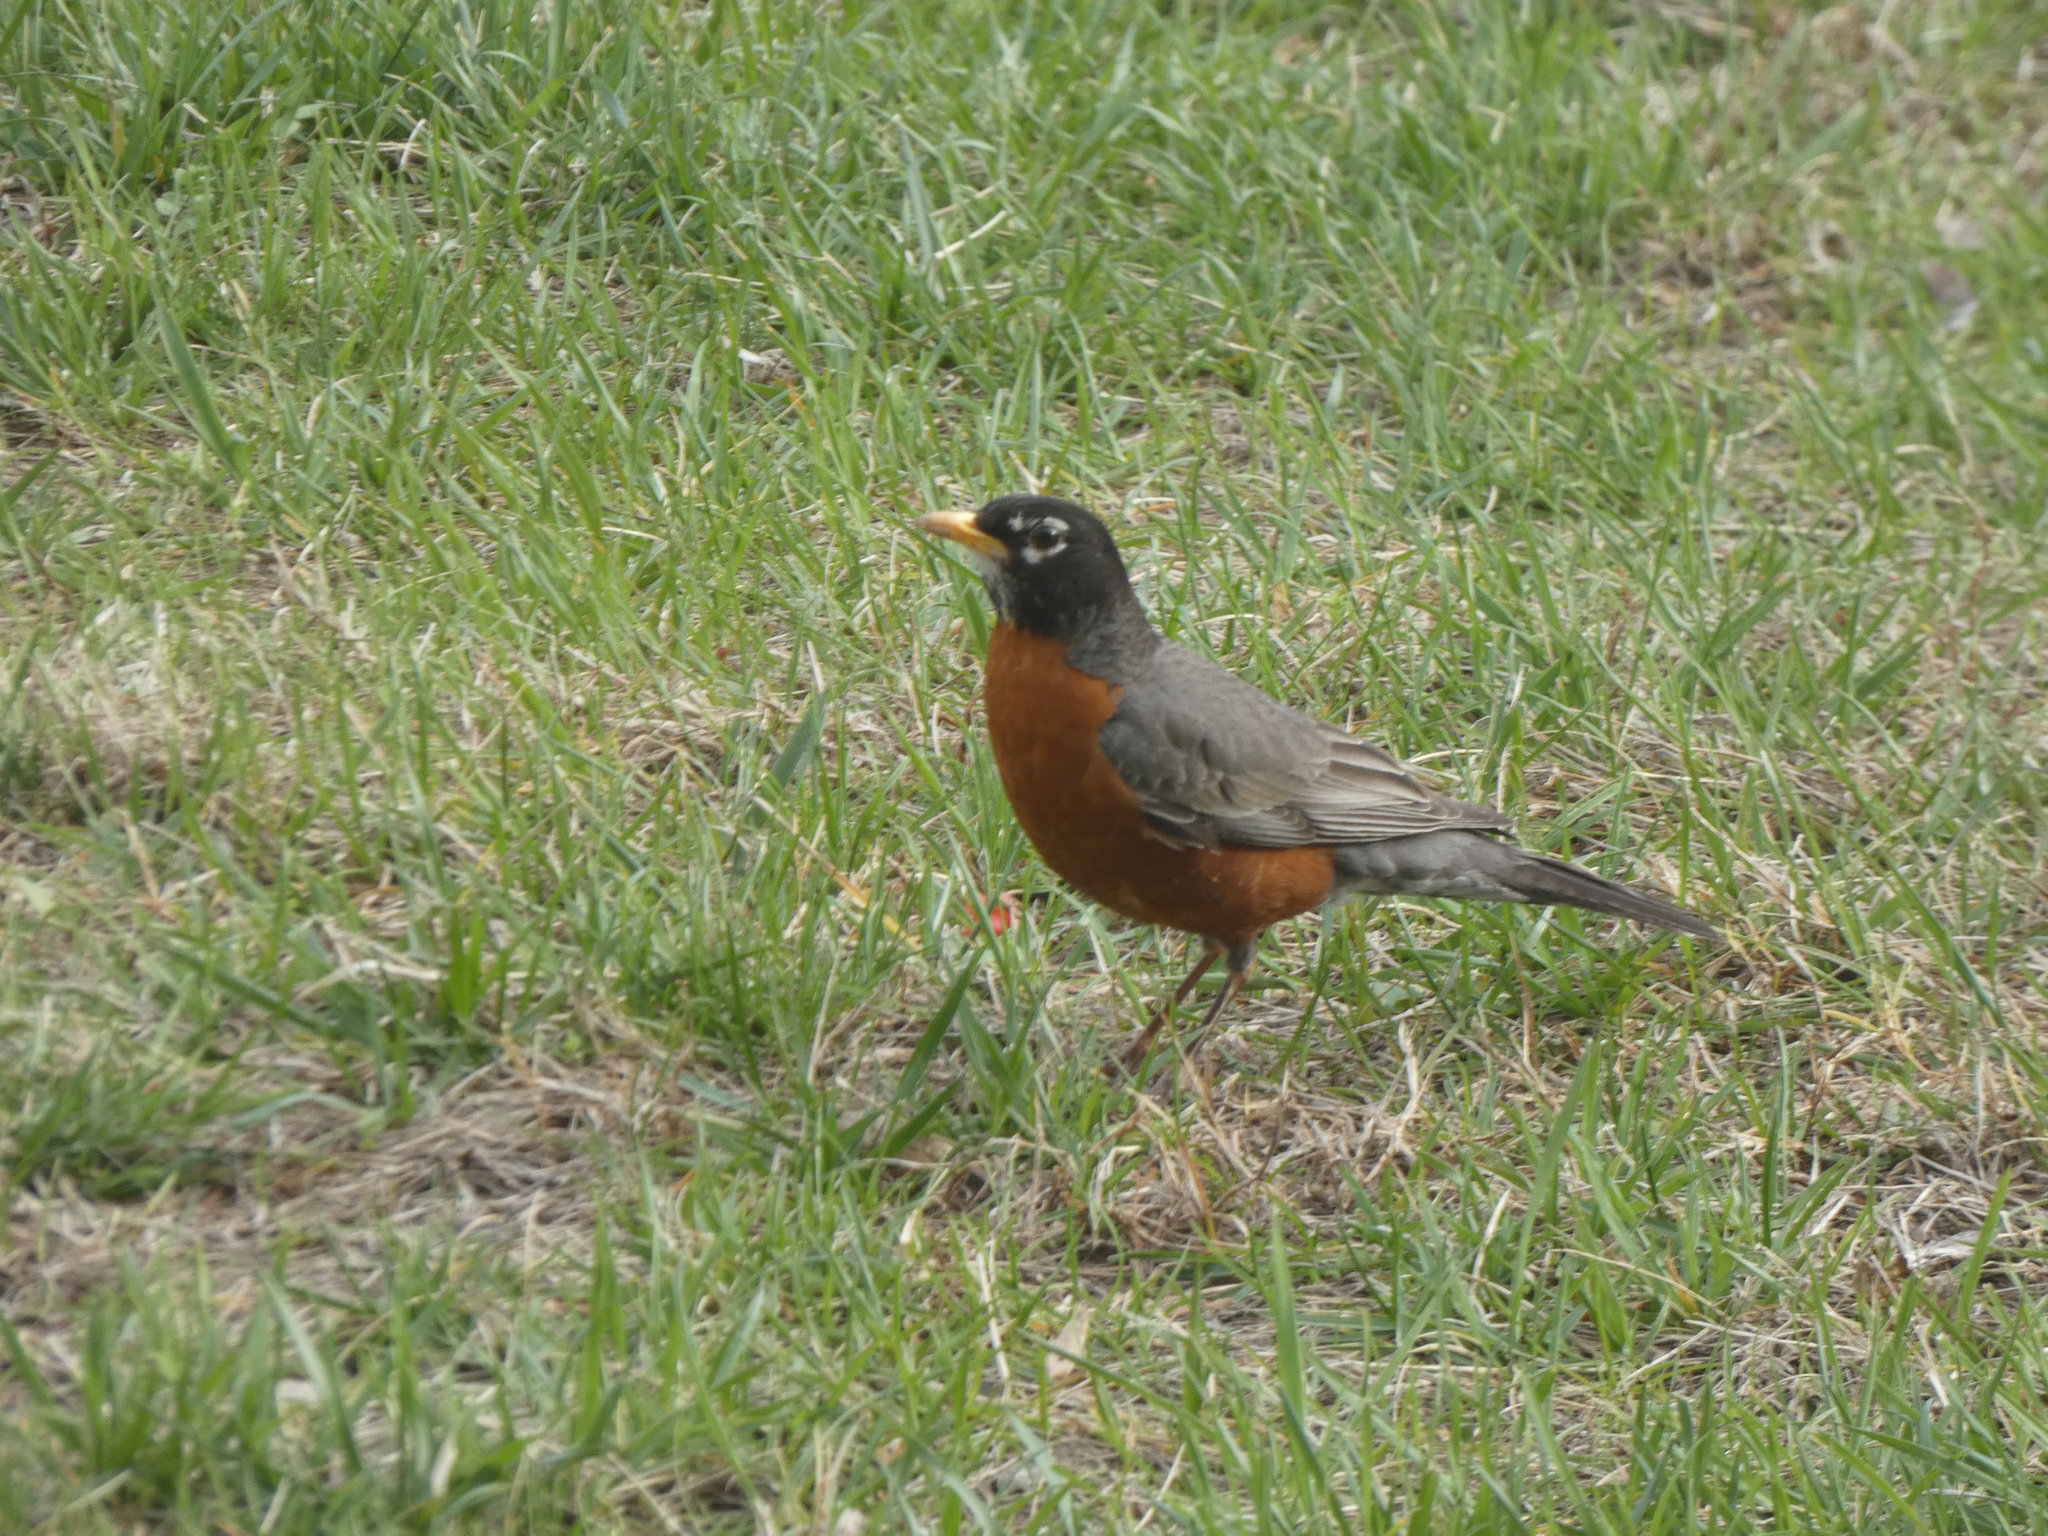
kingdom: Animalia
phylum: Chordata
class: Aves
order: Passeriformes
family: Turdidae
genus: Turdus
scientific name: Turdus migratorius
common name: American robin
